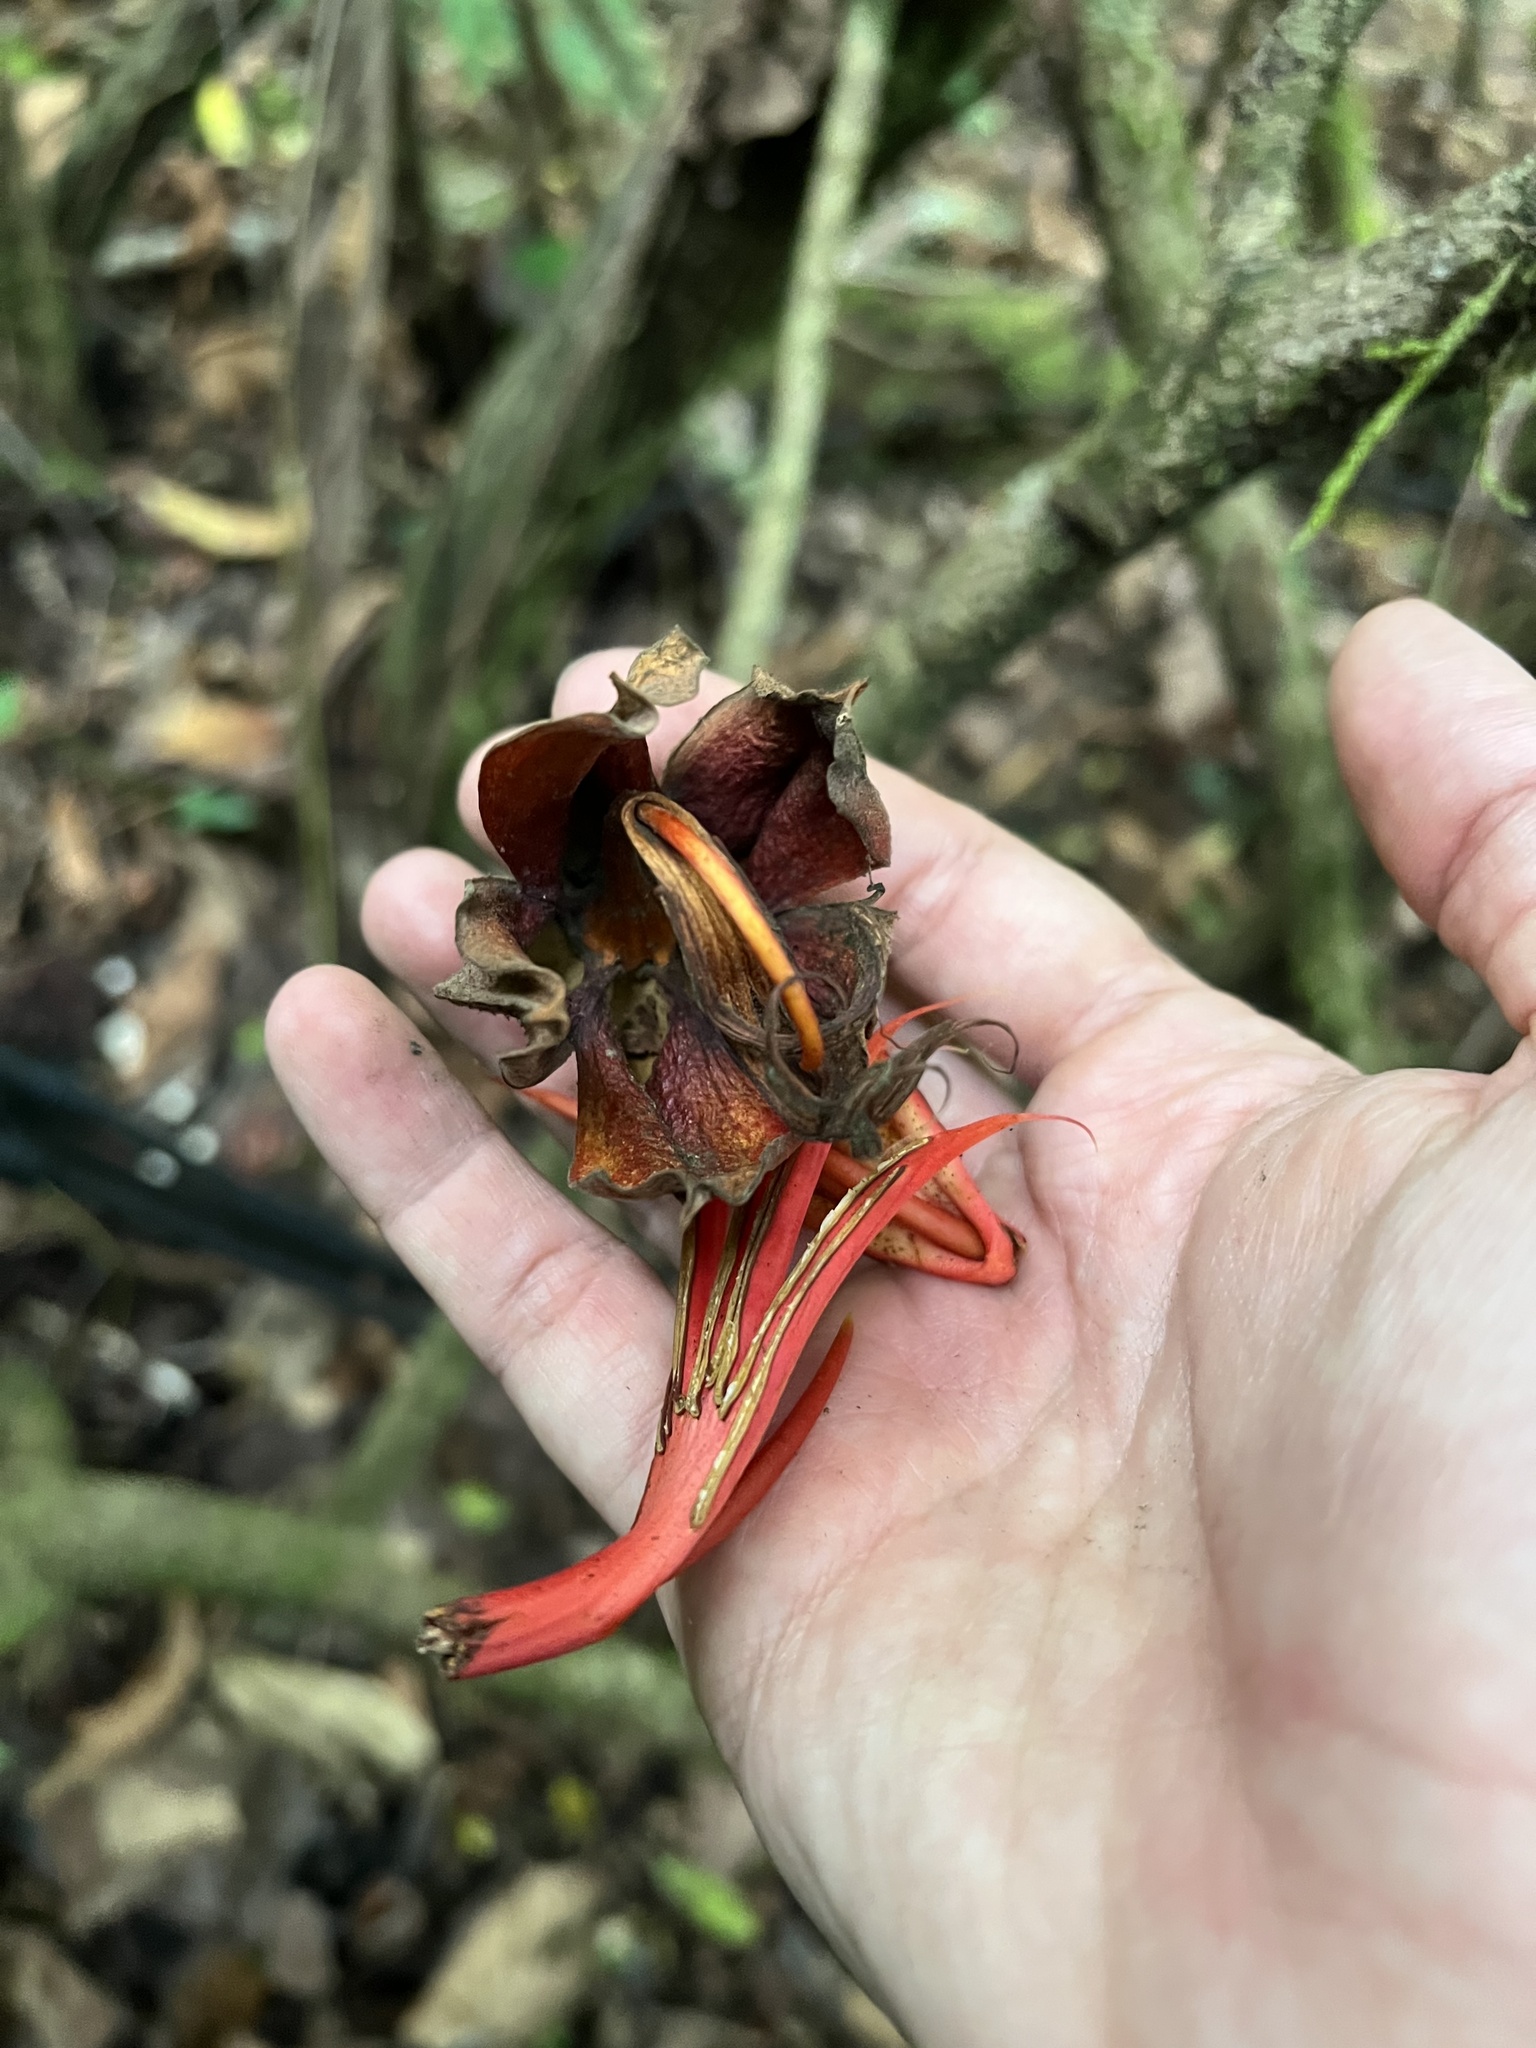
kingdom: Plantae
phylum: Tracheophyta
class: Magnoliopsida
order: Malvales
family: Malvaceae
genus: Chiranthodendron
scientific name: Chiranthodendron pentadactylon
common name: Mexican-hat-plant
